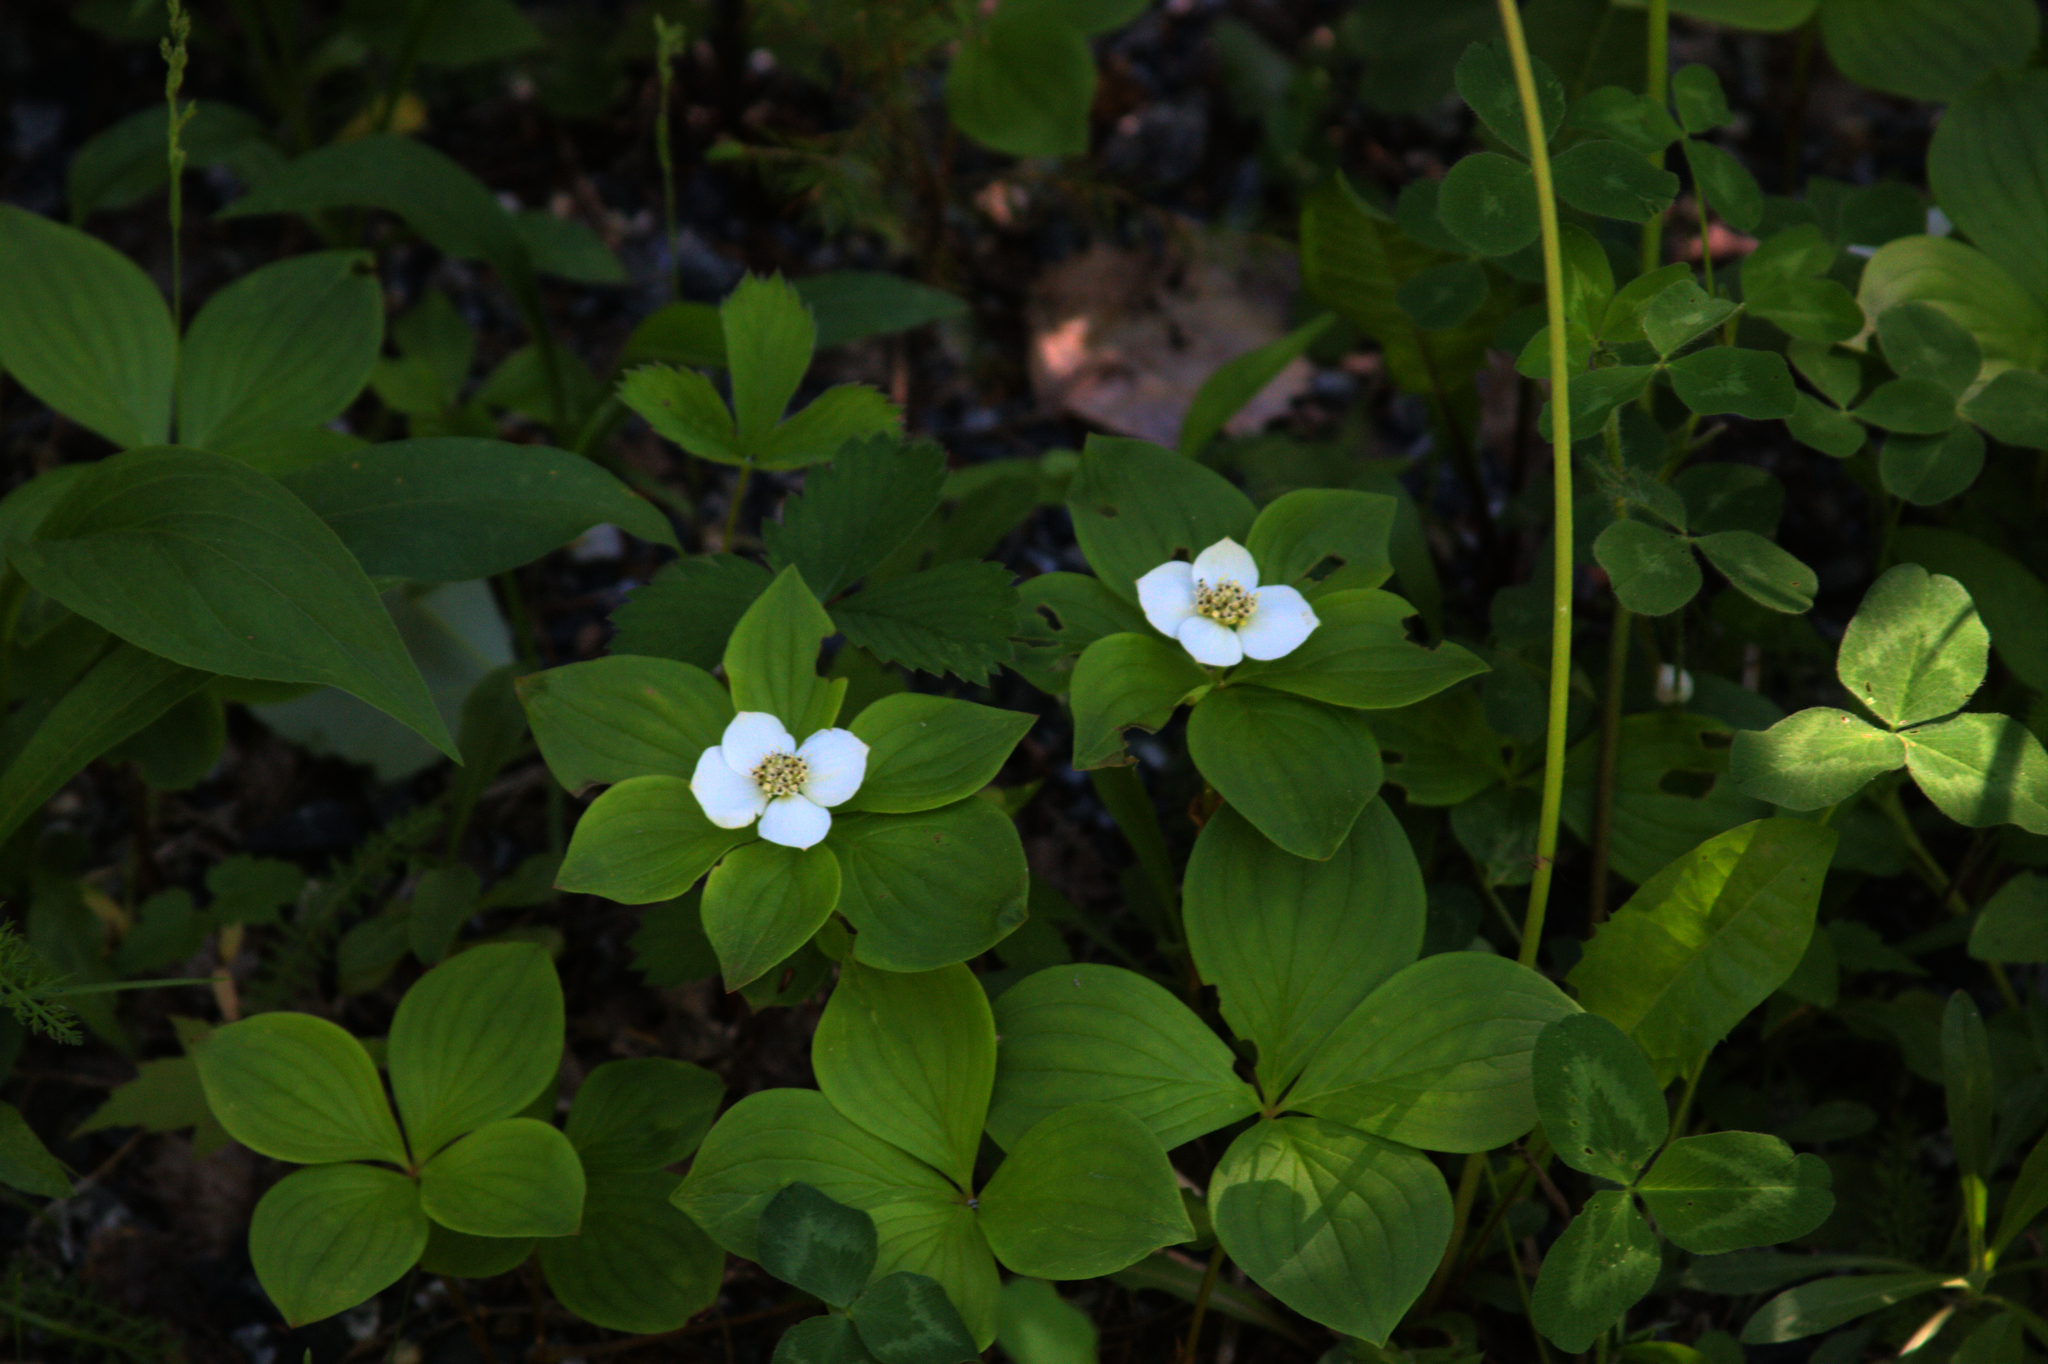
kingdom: Plantae
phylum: Tracheophyta
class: Magnoliopsida
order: Cornales
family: Cornaceae
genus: Cornus
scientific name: Cornus canadensis
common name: Creeping dogwood
